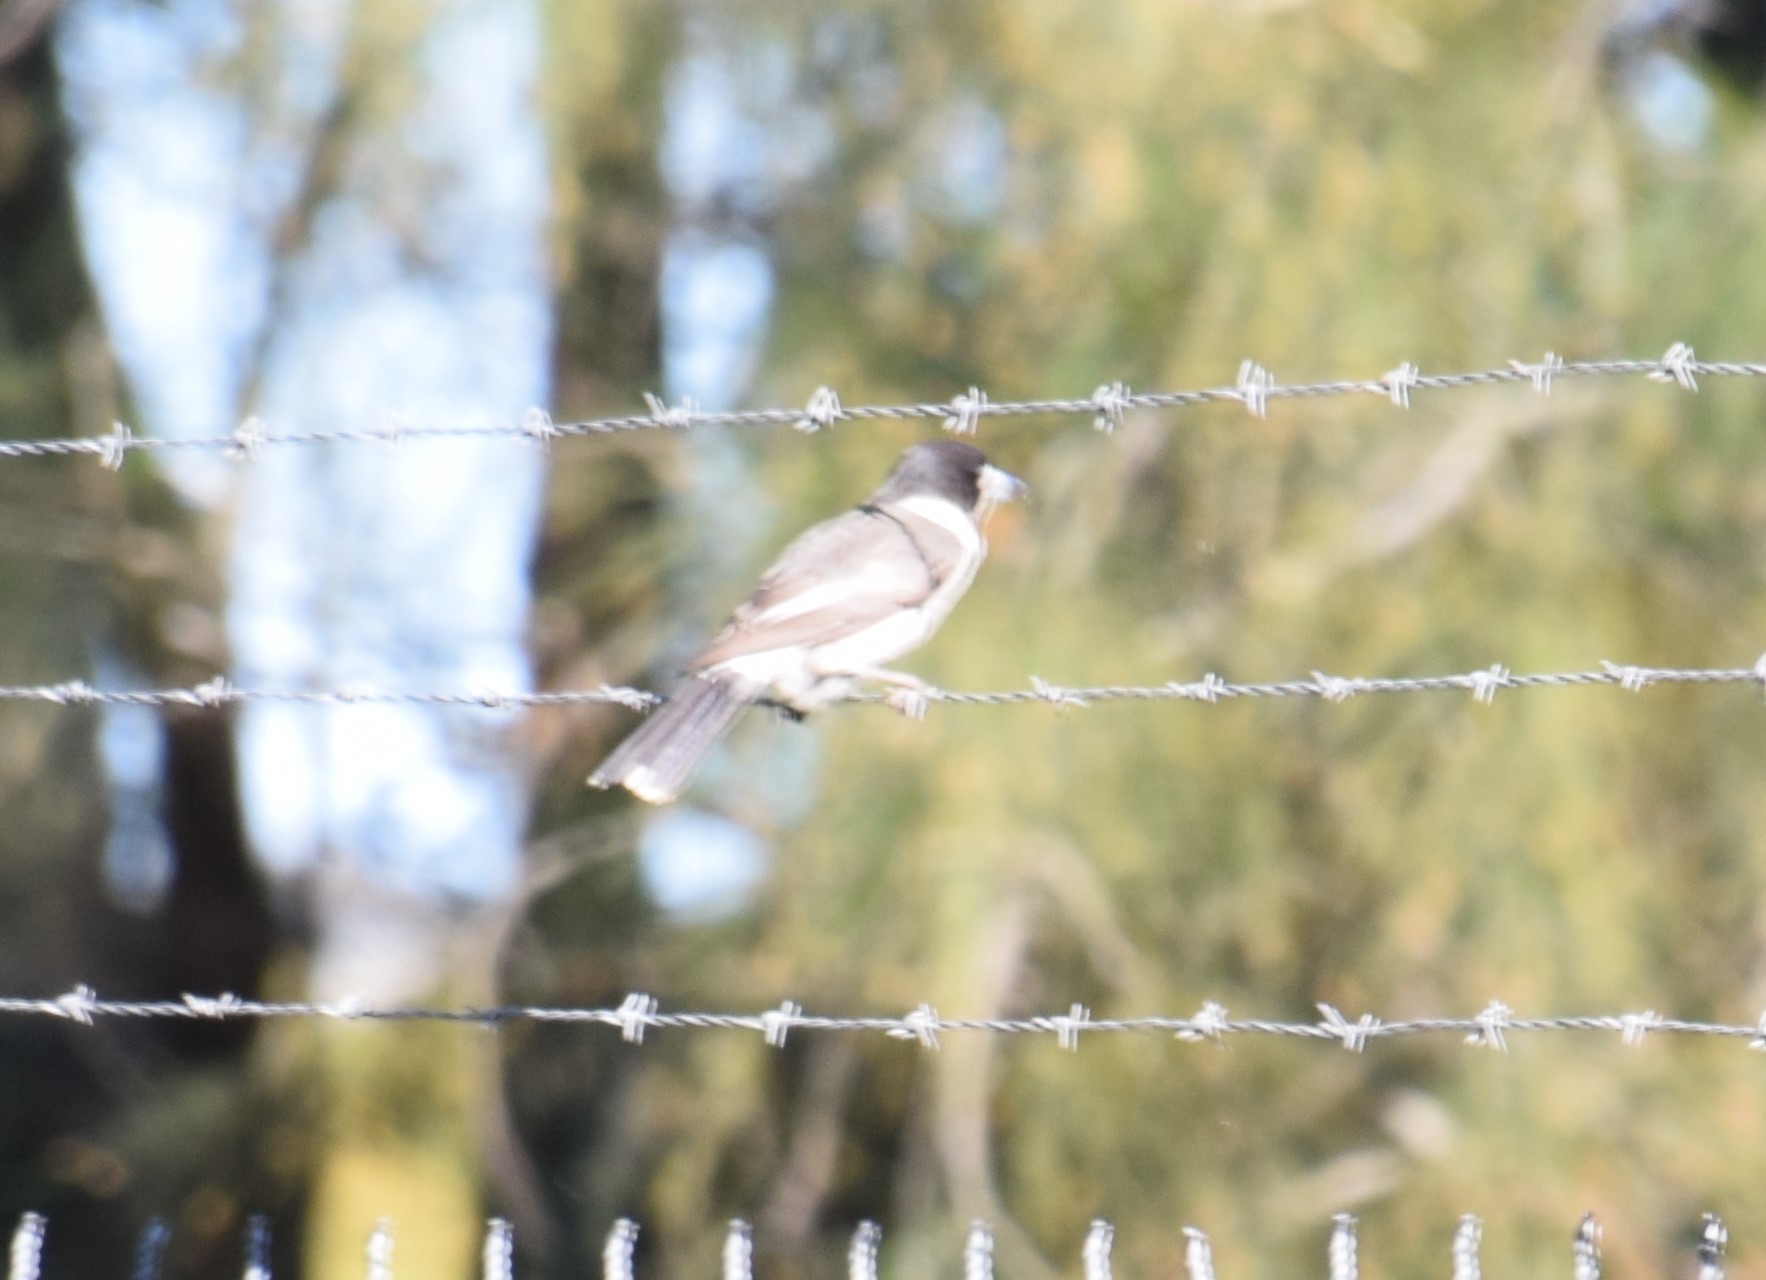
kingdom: Animalia
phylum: Chordata
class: Aves
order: Passeriformes
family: Cracticidae
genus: Cracticus
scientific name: Cracticus torquatus
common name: Grey butcherbird
